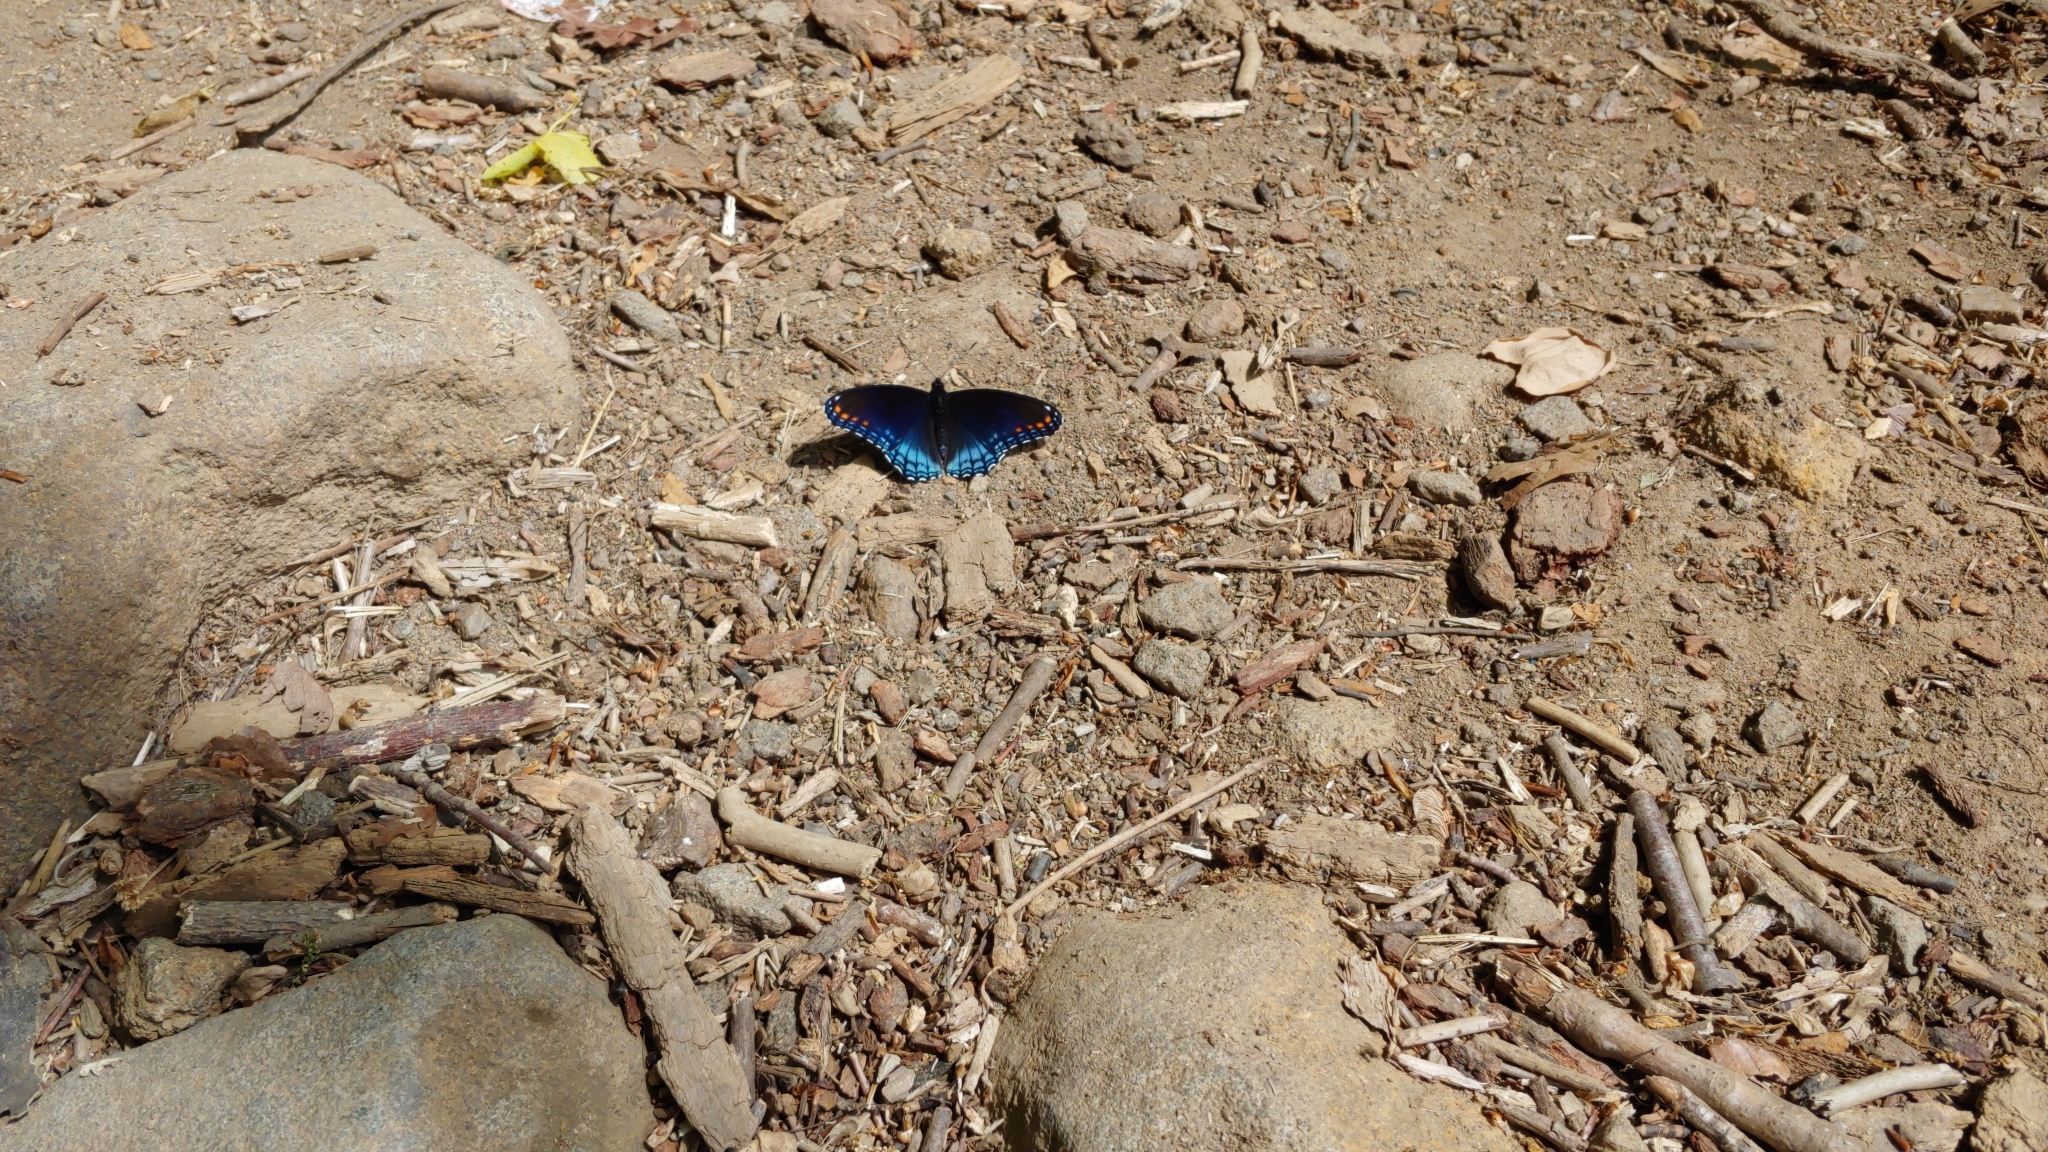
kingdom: Animalia
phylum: Arthropoda
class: Insecta
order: Lepidoptera
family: Nymphalidae
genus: Limenitis
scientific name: Limenitis arthemis
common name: Red-spotted admiral
